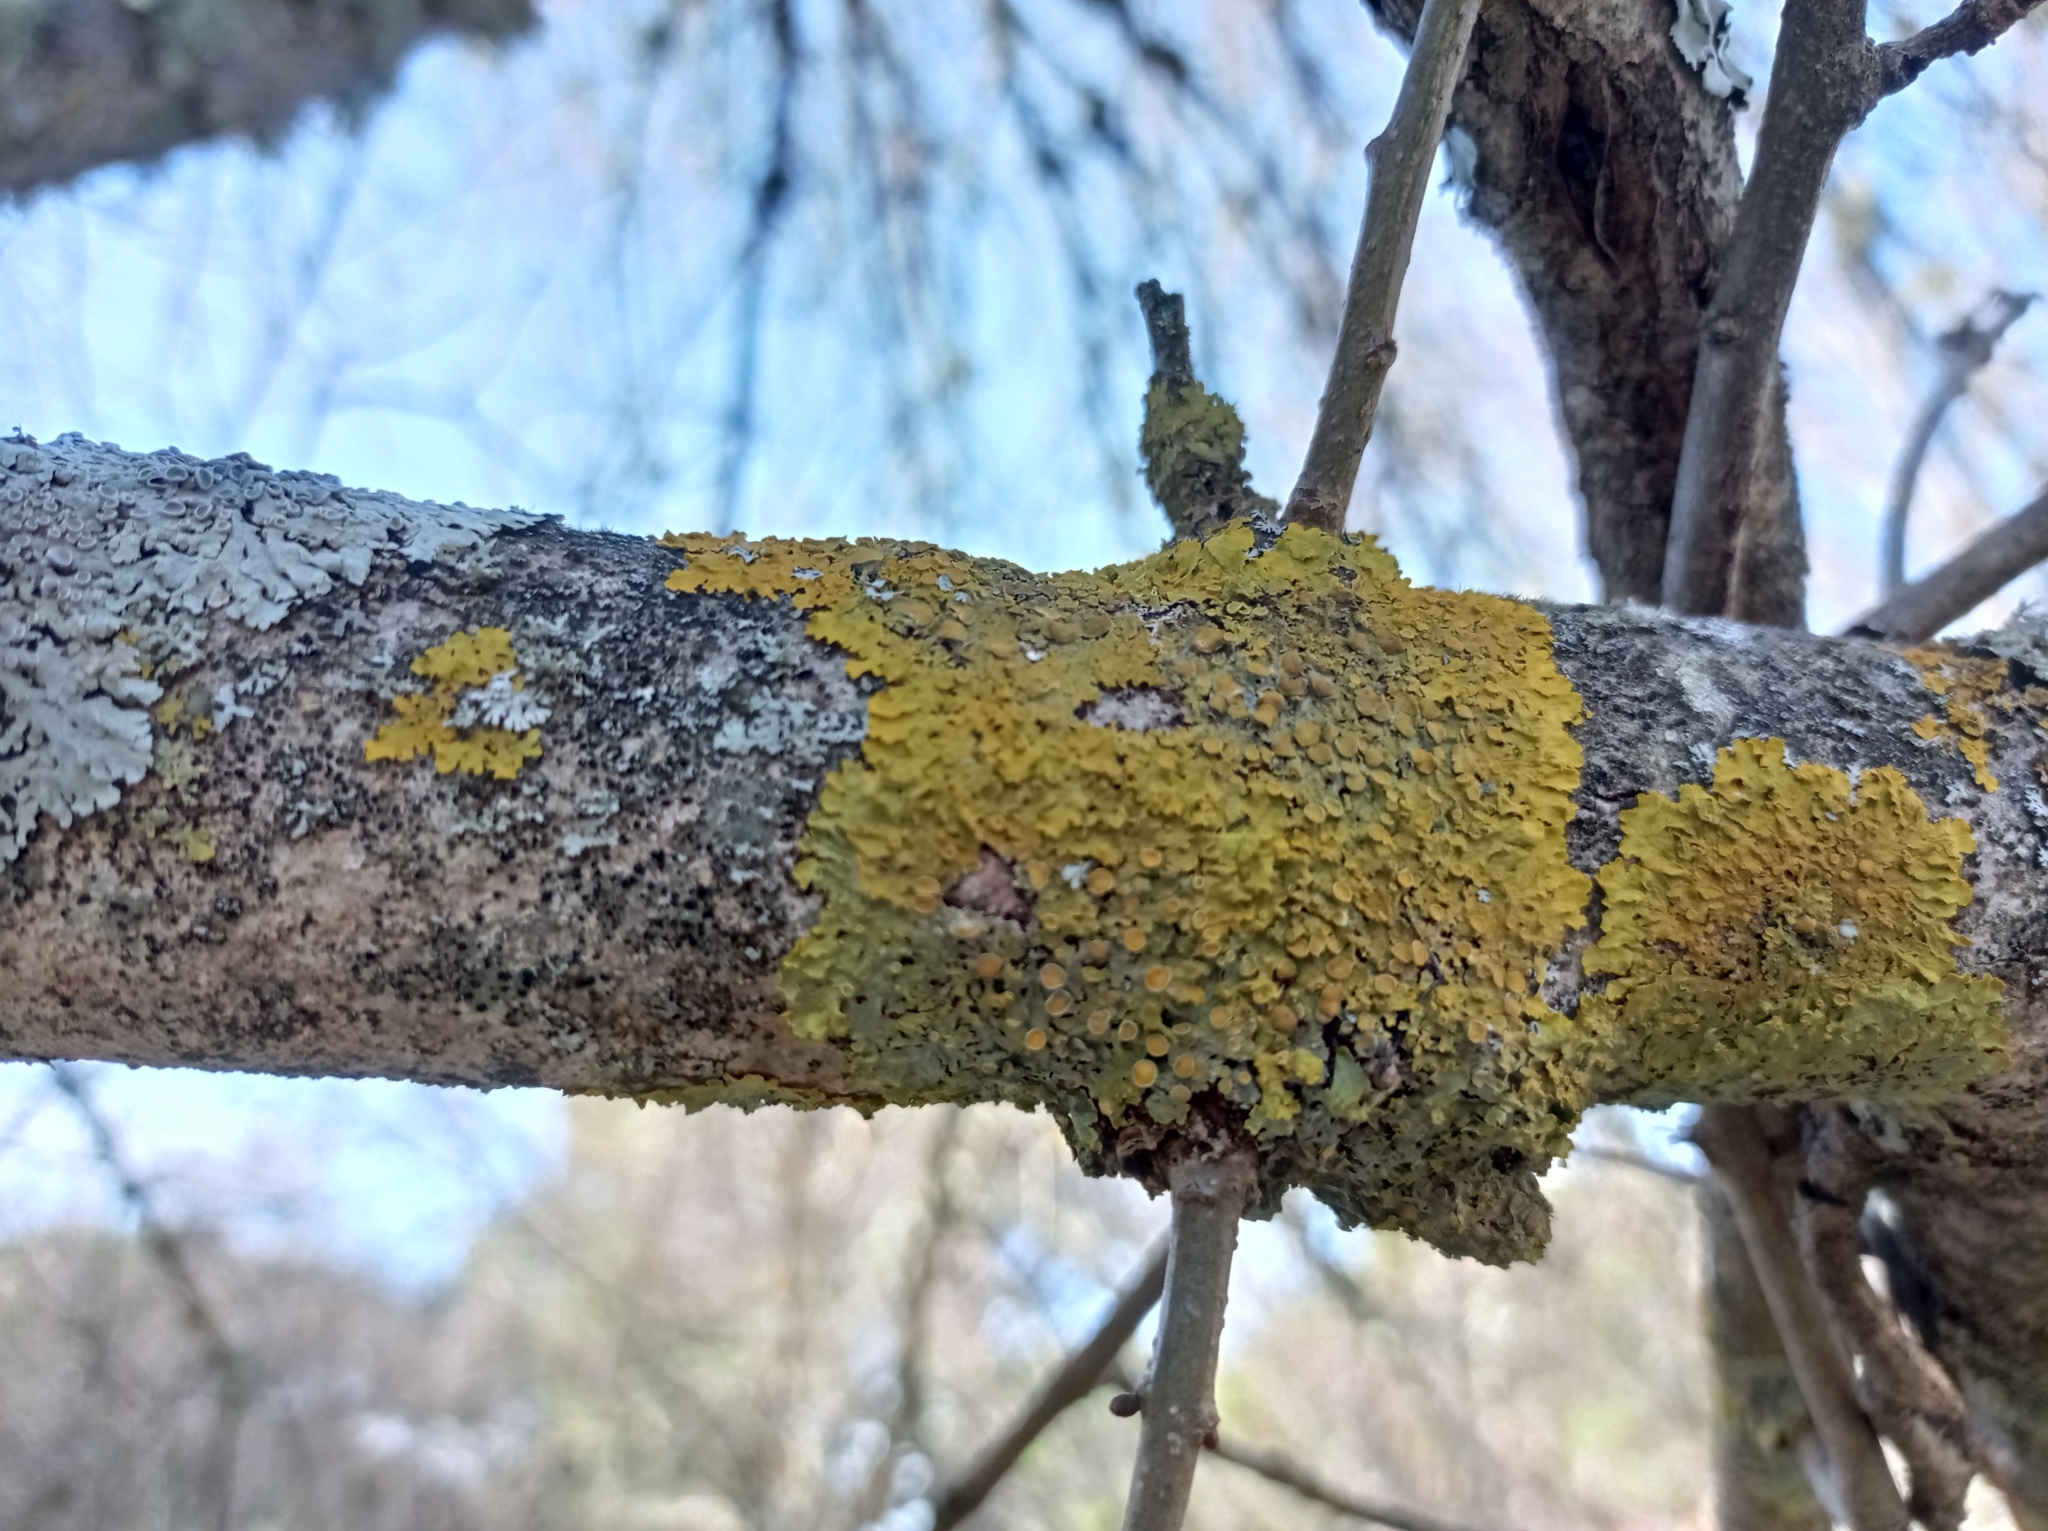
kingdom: Fungi
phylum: Ascomycota
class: Lecanoromycetes
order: Teloschistales
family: Teloschistaceae
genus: Xanthoria
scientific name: Xanthoria parietina
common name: Common orange lichen
